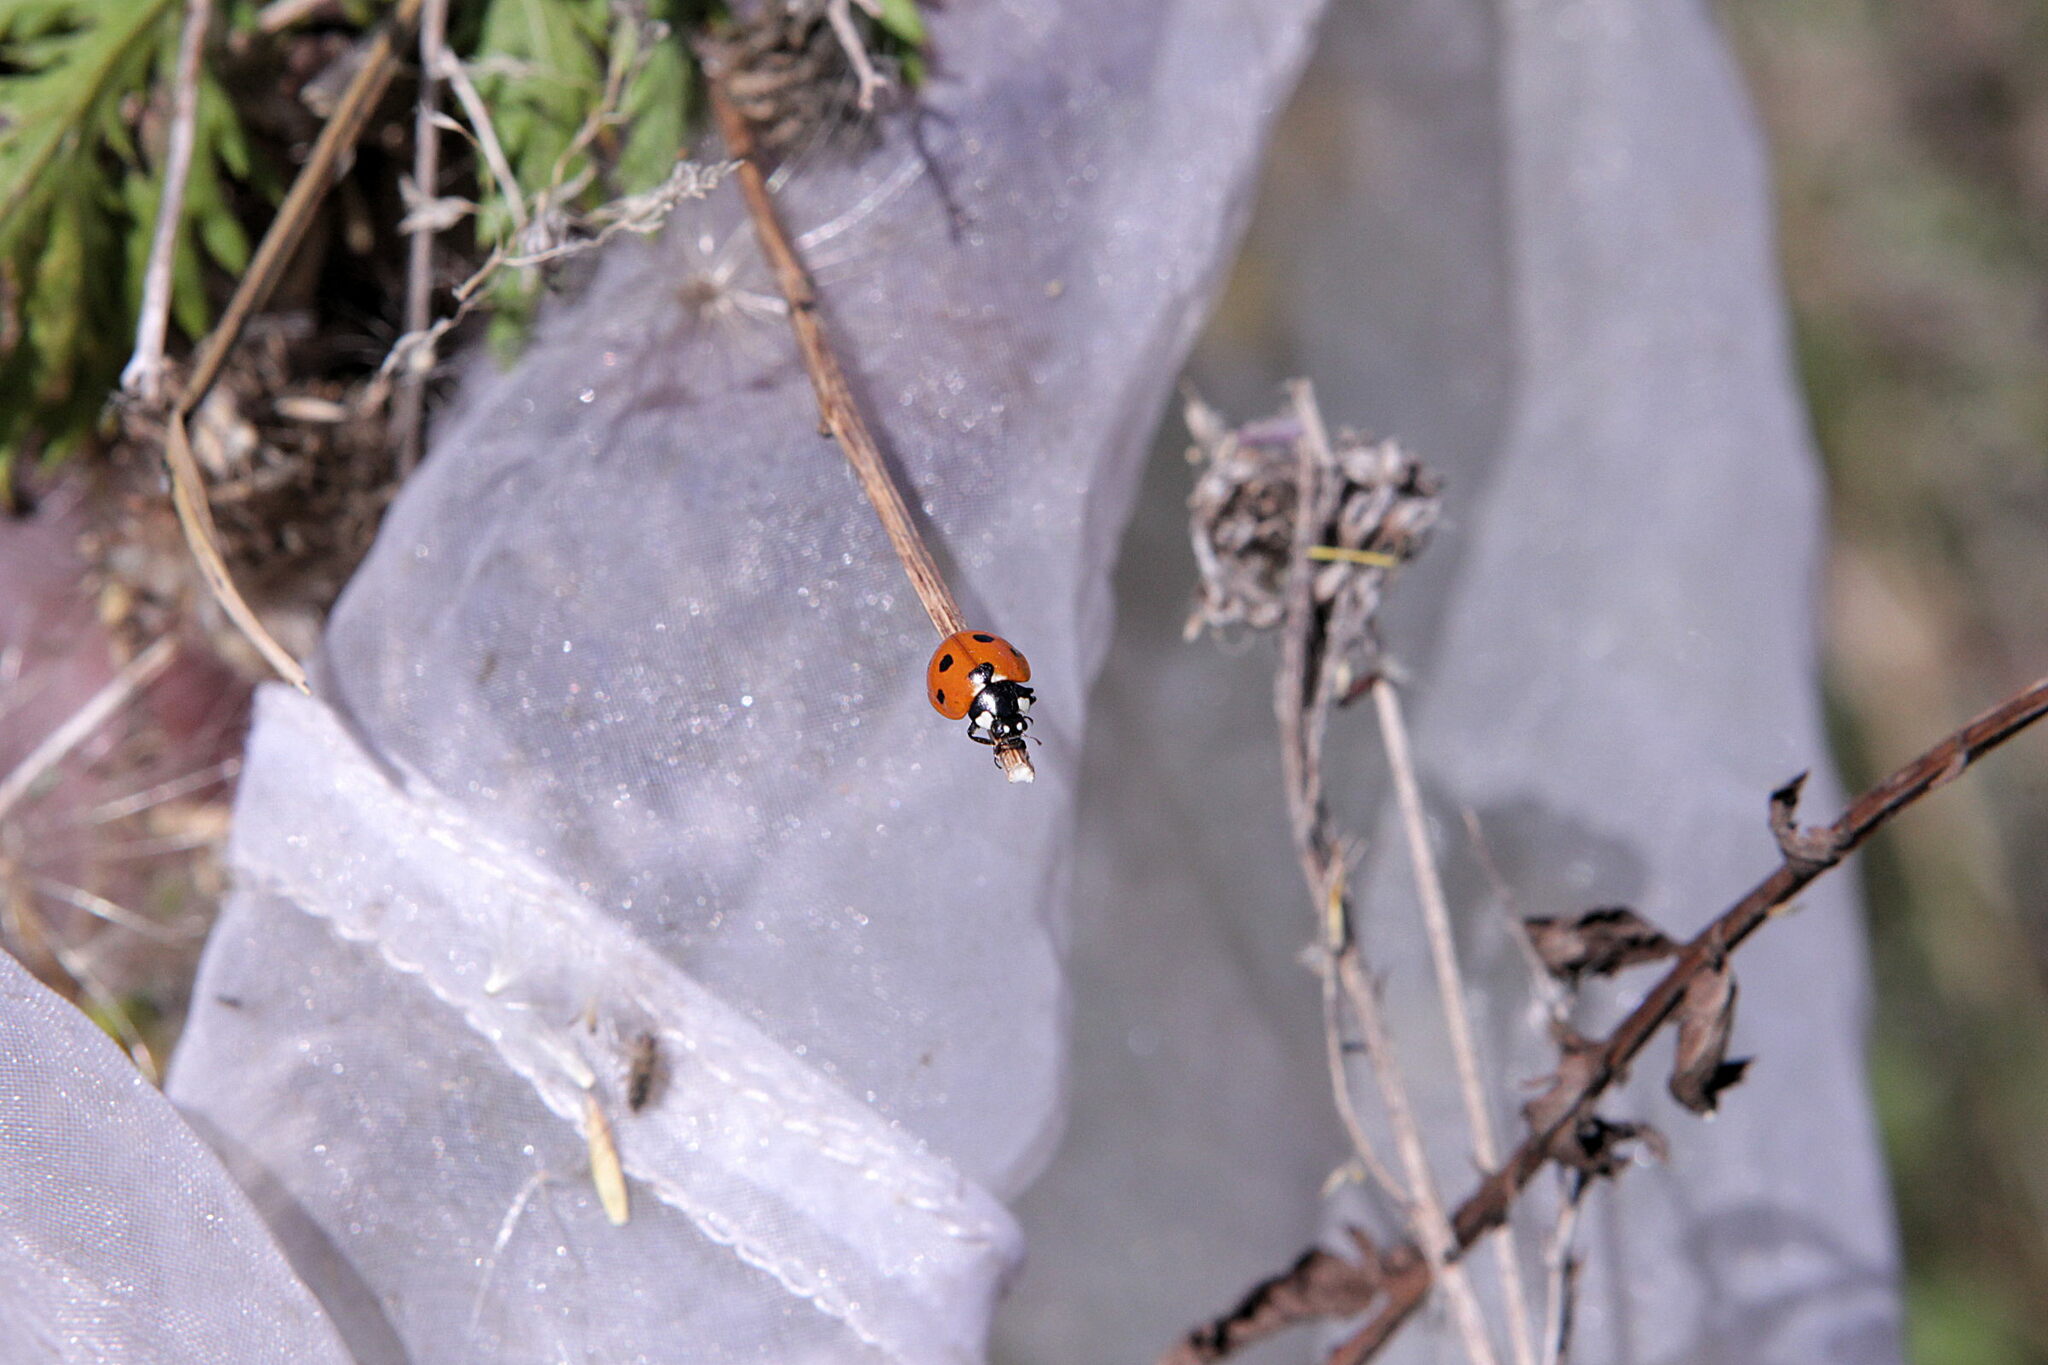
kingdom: Animalia
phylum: Arthropoda
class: Insecta
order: Coleoptera
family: Coccinellidae
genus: Coccinella
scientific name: Coccinella septempunctata
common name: Sevenspotted lady beetle
